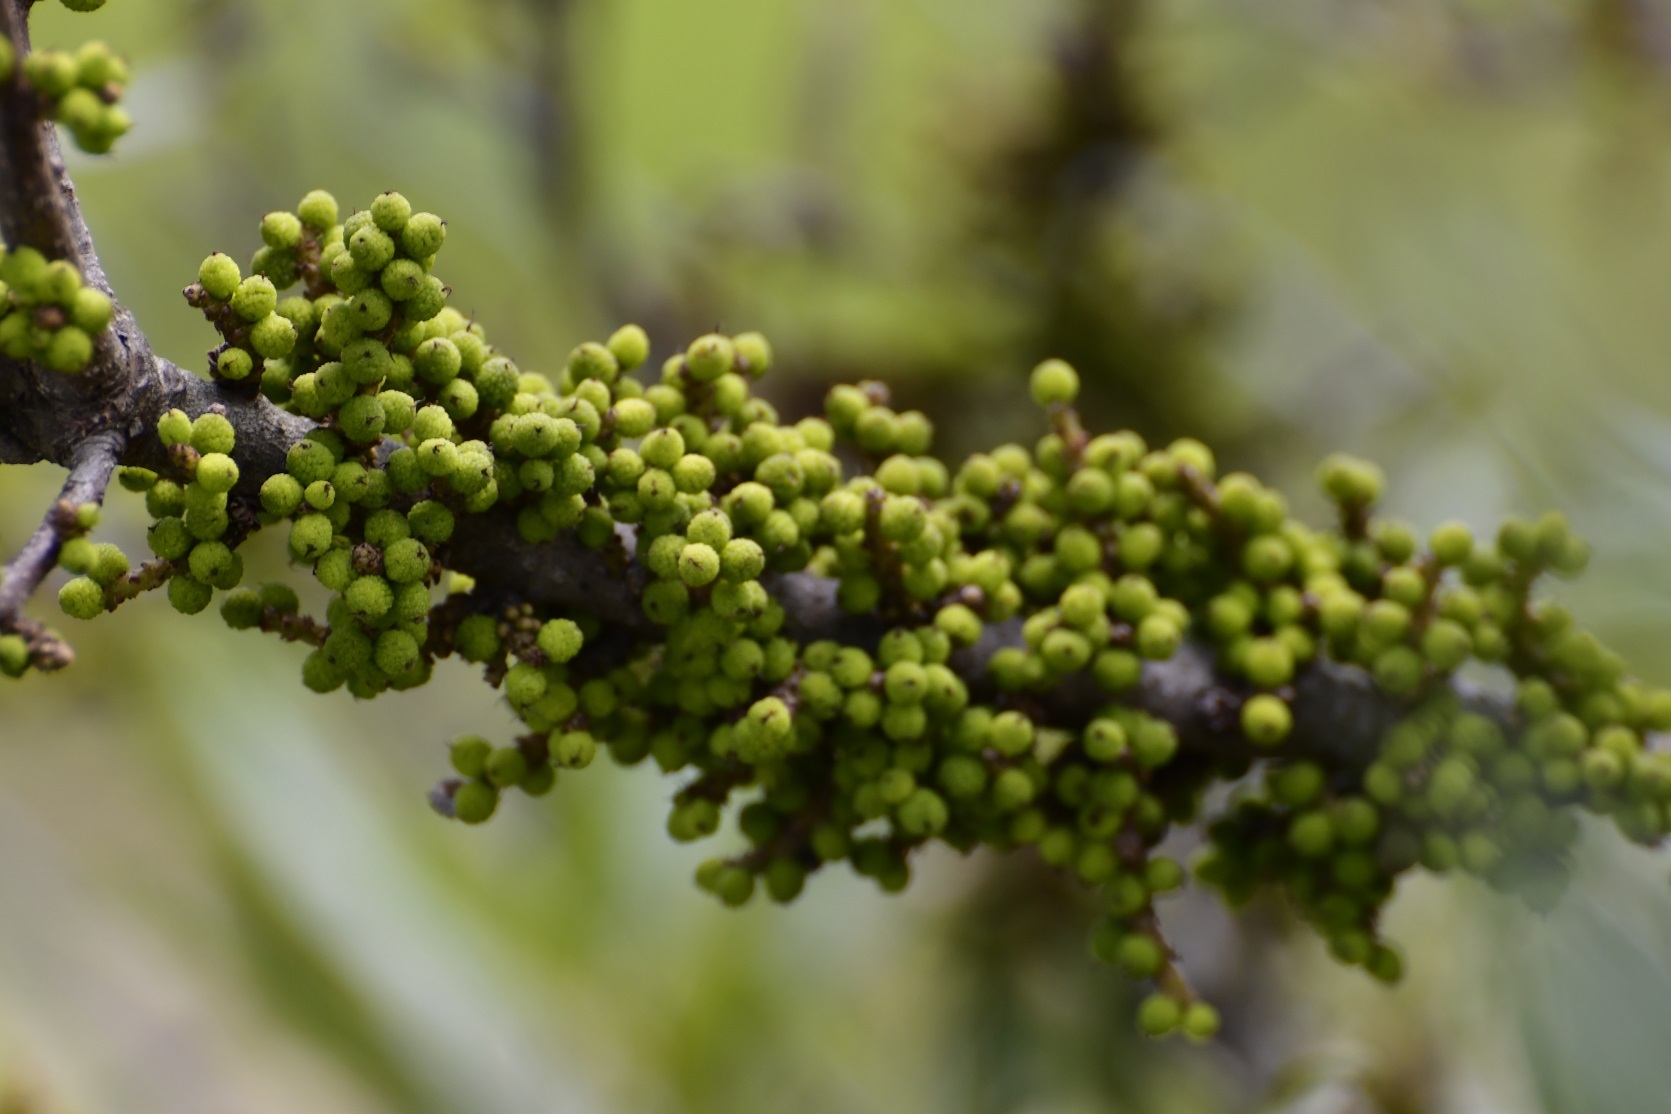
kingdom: Plantae
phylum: Tracheophyta
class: Magnoliopsida
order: Fagales
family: Myricaceae
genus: Morella
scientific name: Morella cerifera
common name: Wax myrtle
